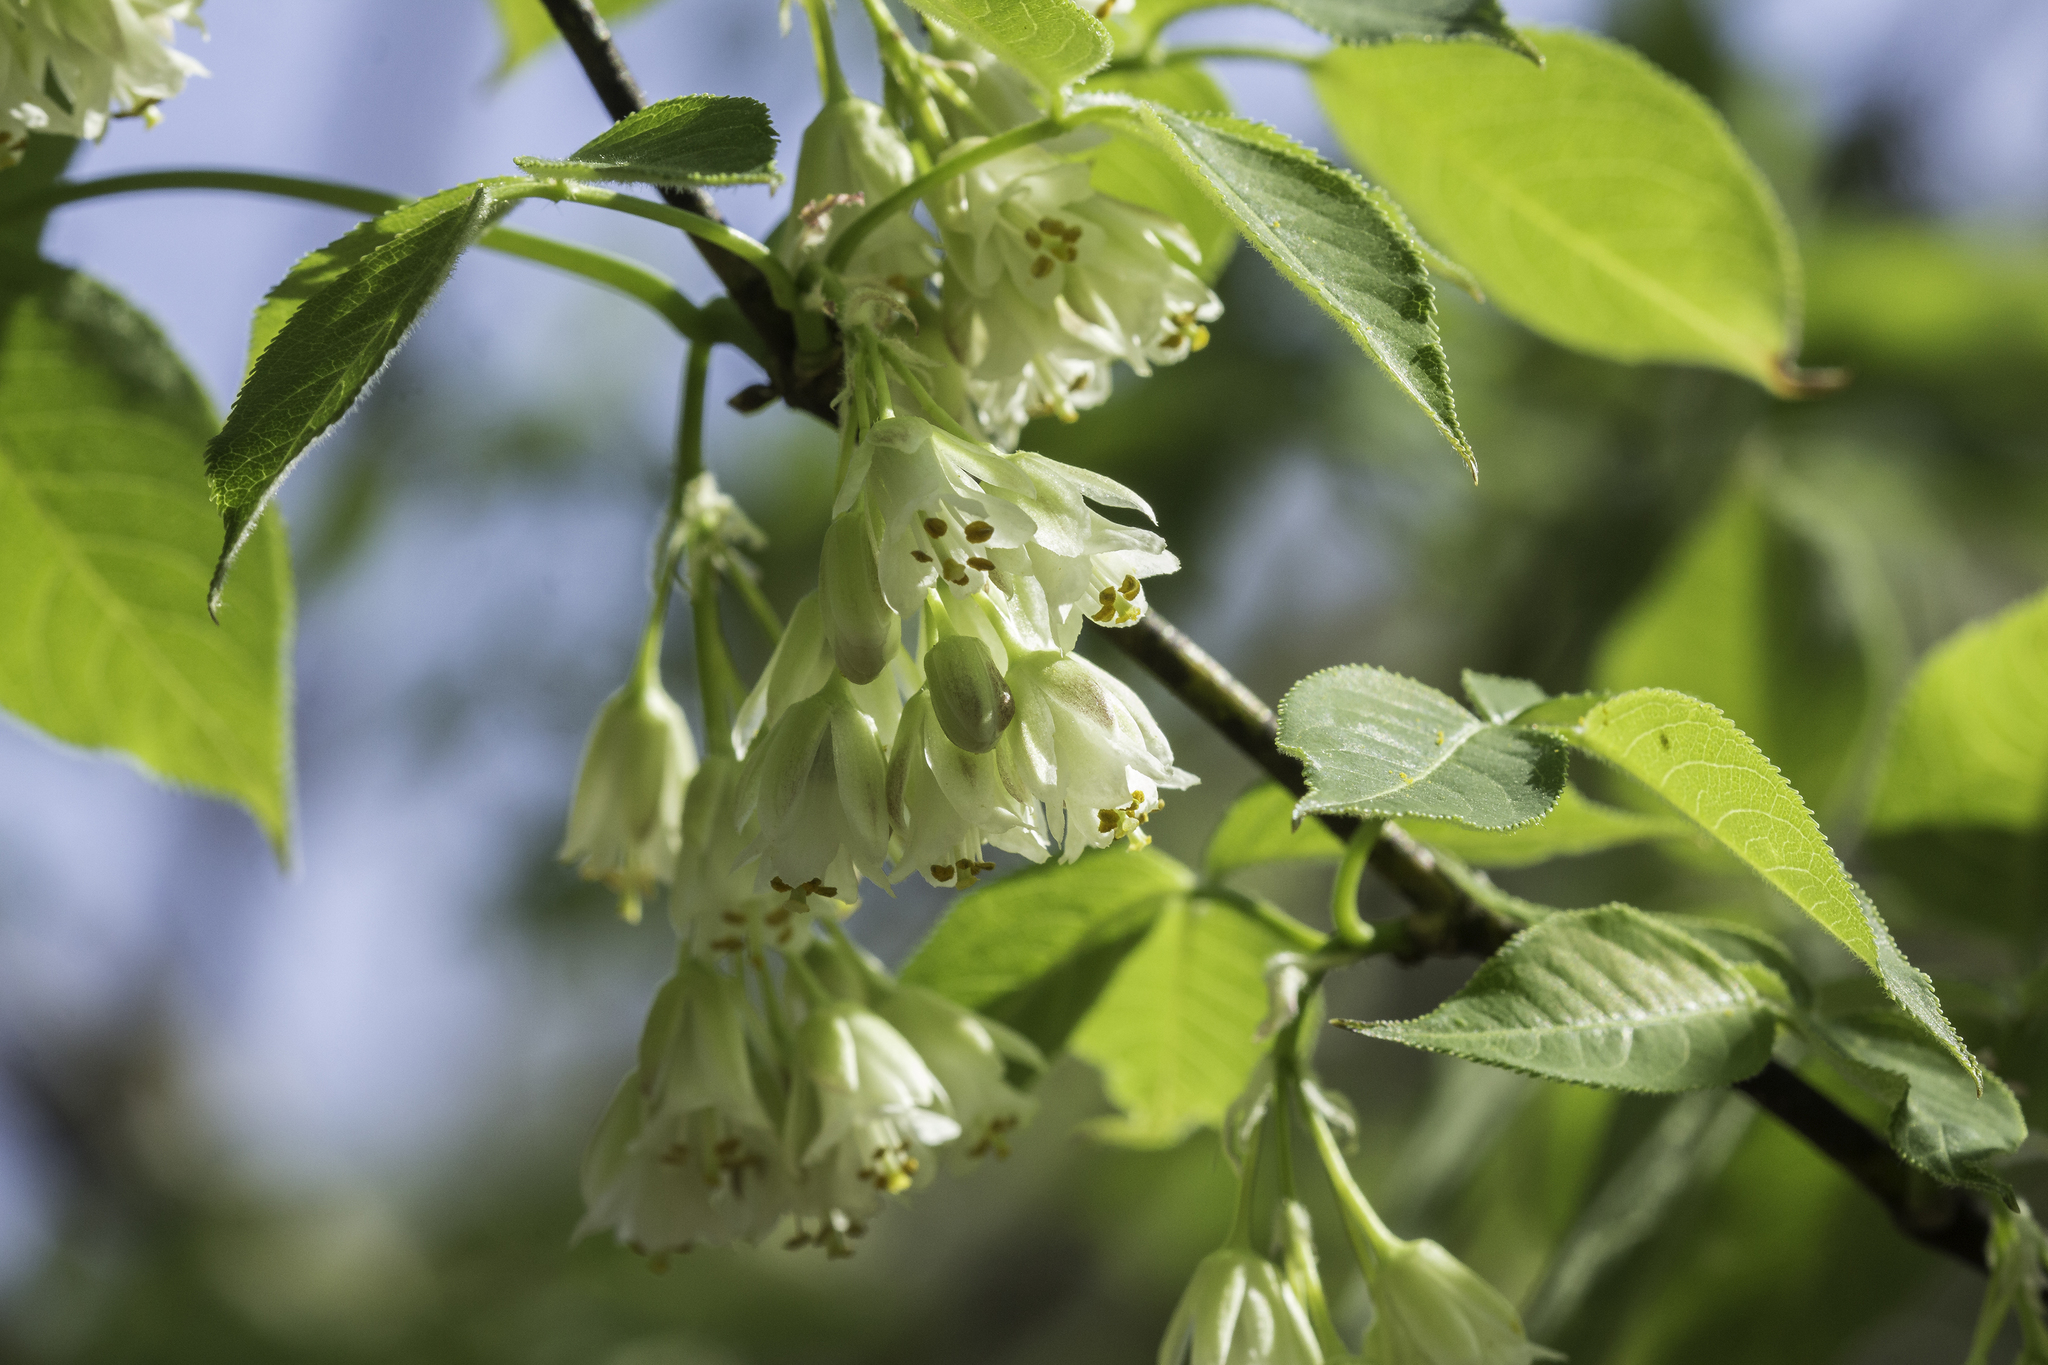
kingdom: Plantae
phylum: Tracheophyta
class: Magnoliopsida
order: Crossosomatales
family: Staphyleaceae
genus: Staphylea
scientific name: Staphylea trifolia
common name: American bladdernut
